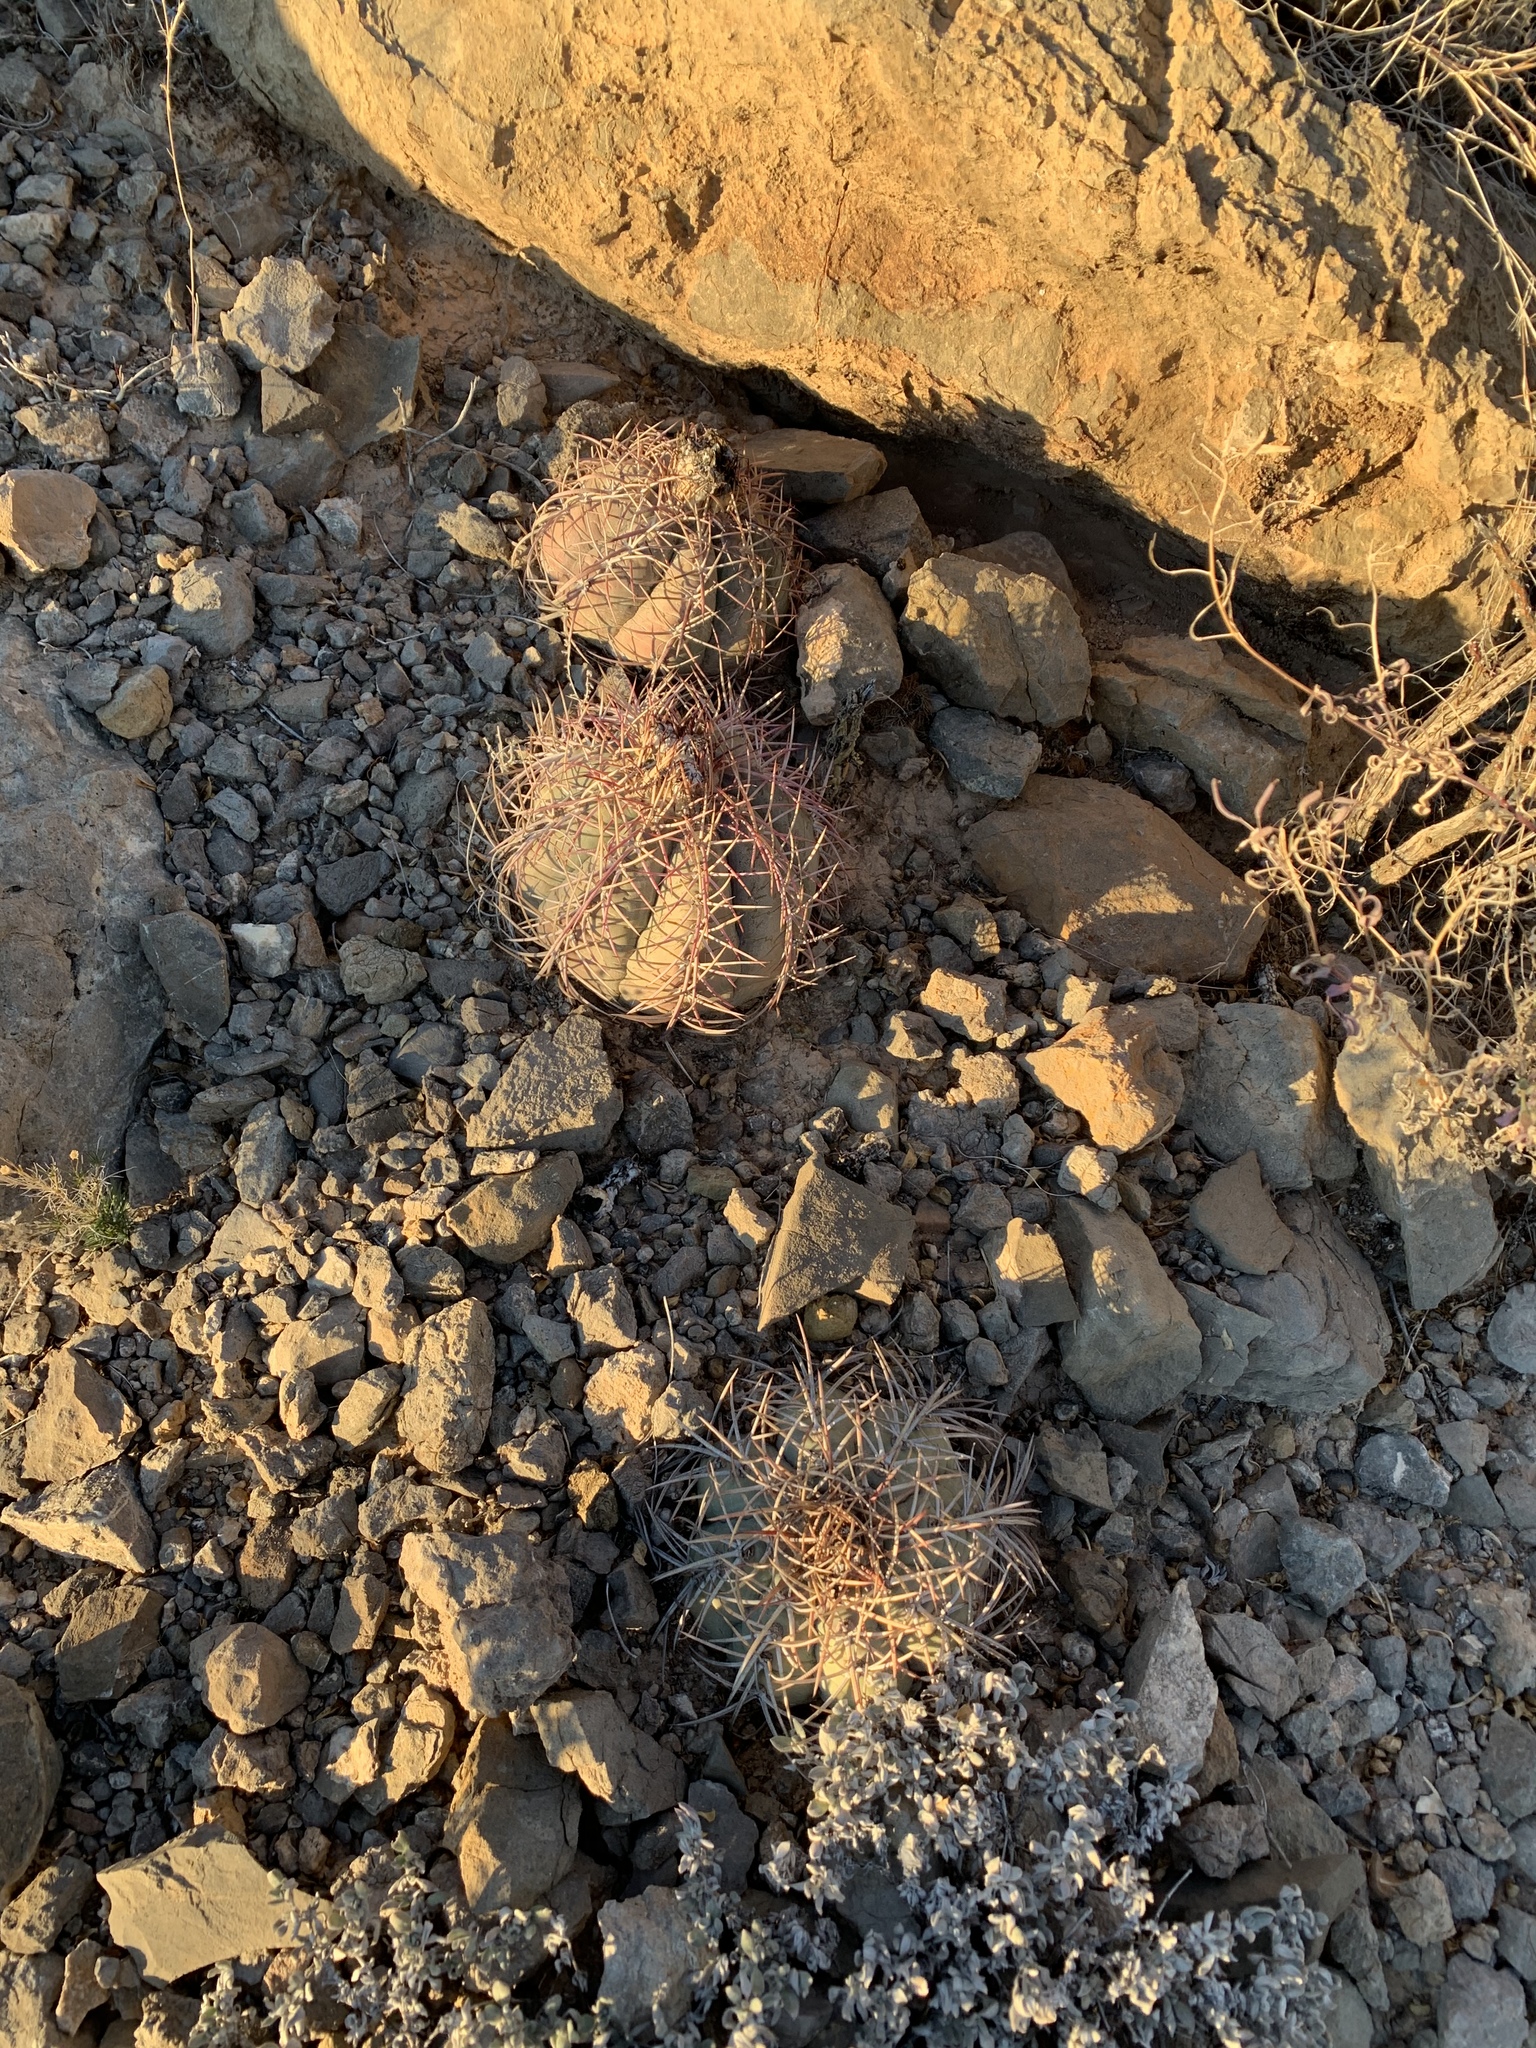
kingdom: Plantae
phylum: Tracheophyta
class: Magnoliopsida
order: Caryophyllales
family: Cactaceae
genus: Echinocactus
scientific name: Echinocactus horizonthalonius
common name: Devilshead
